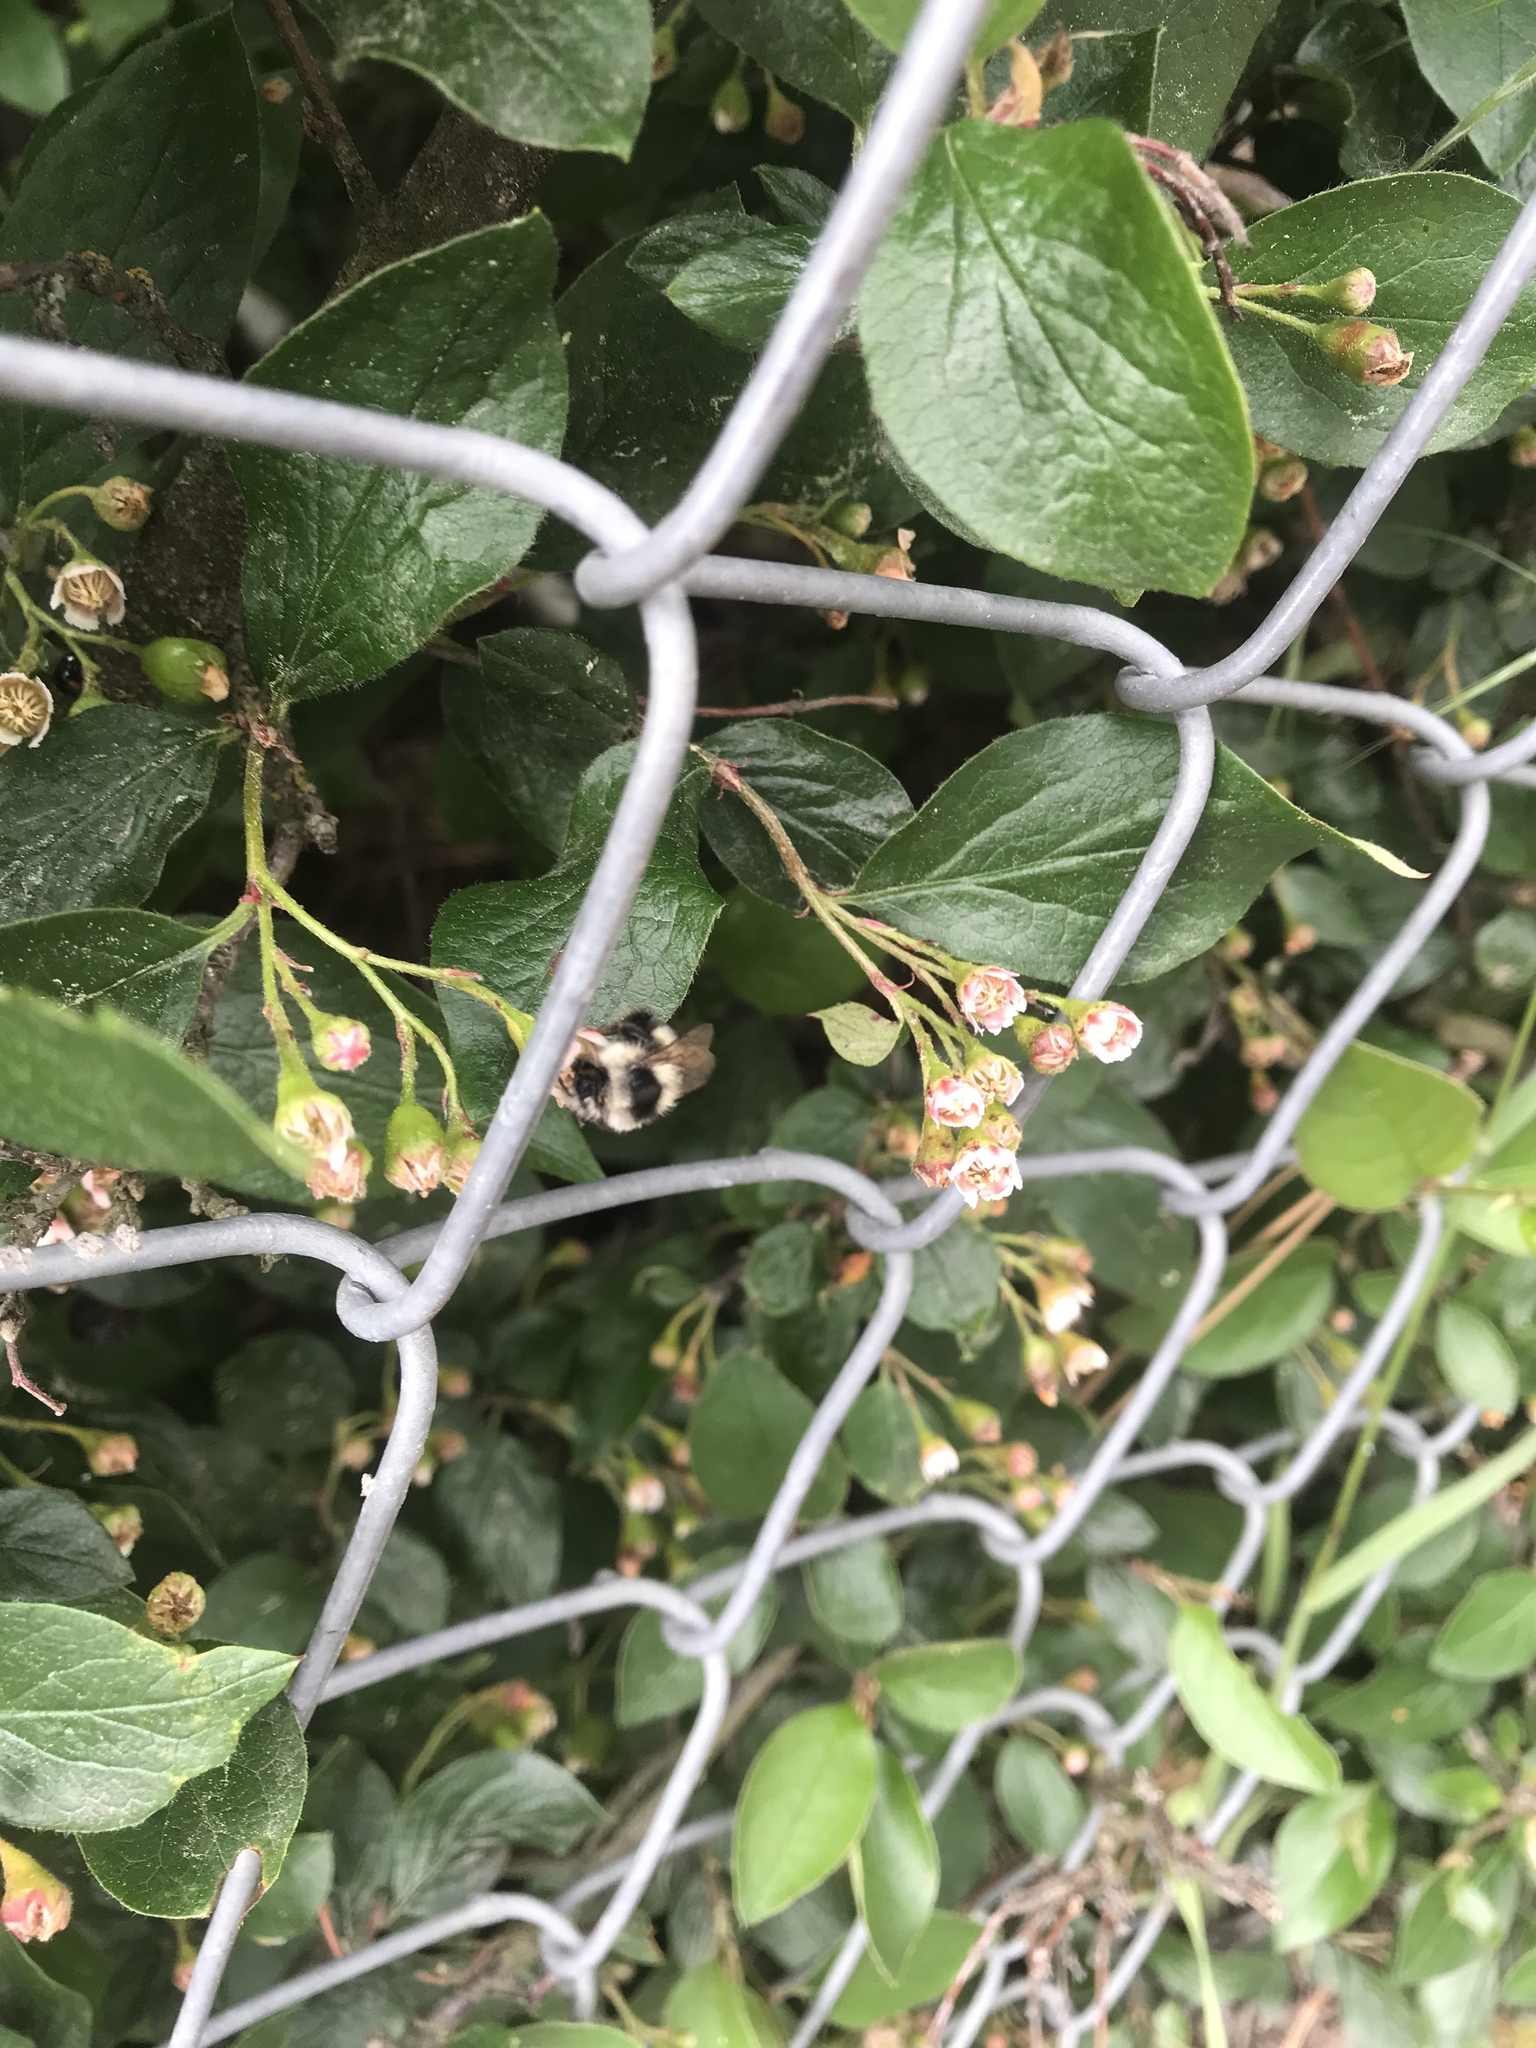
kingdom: Animalia
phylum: Arthropoda
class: Insecta
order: Hymenoptera
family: Apidae
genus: Bombus
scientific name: Bombus vancouverensis
